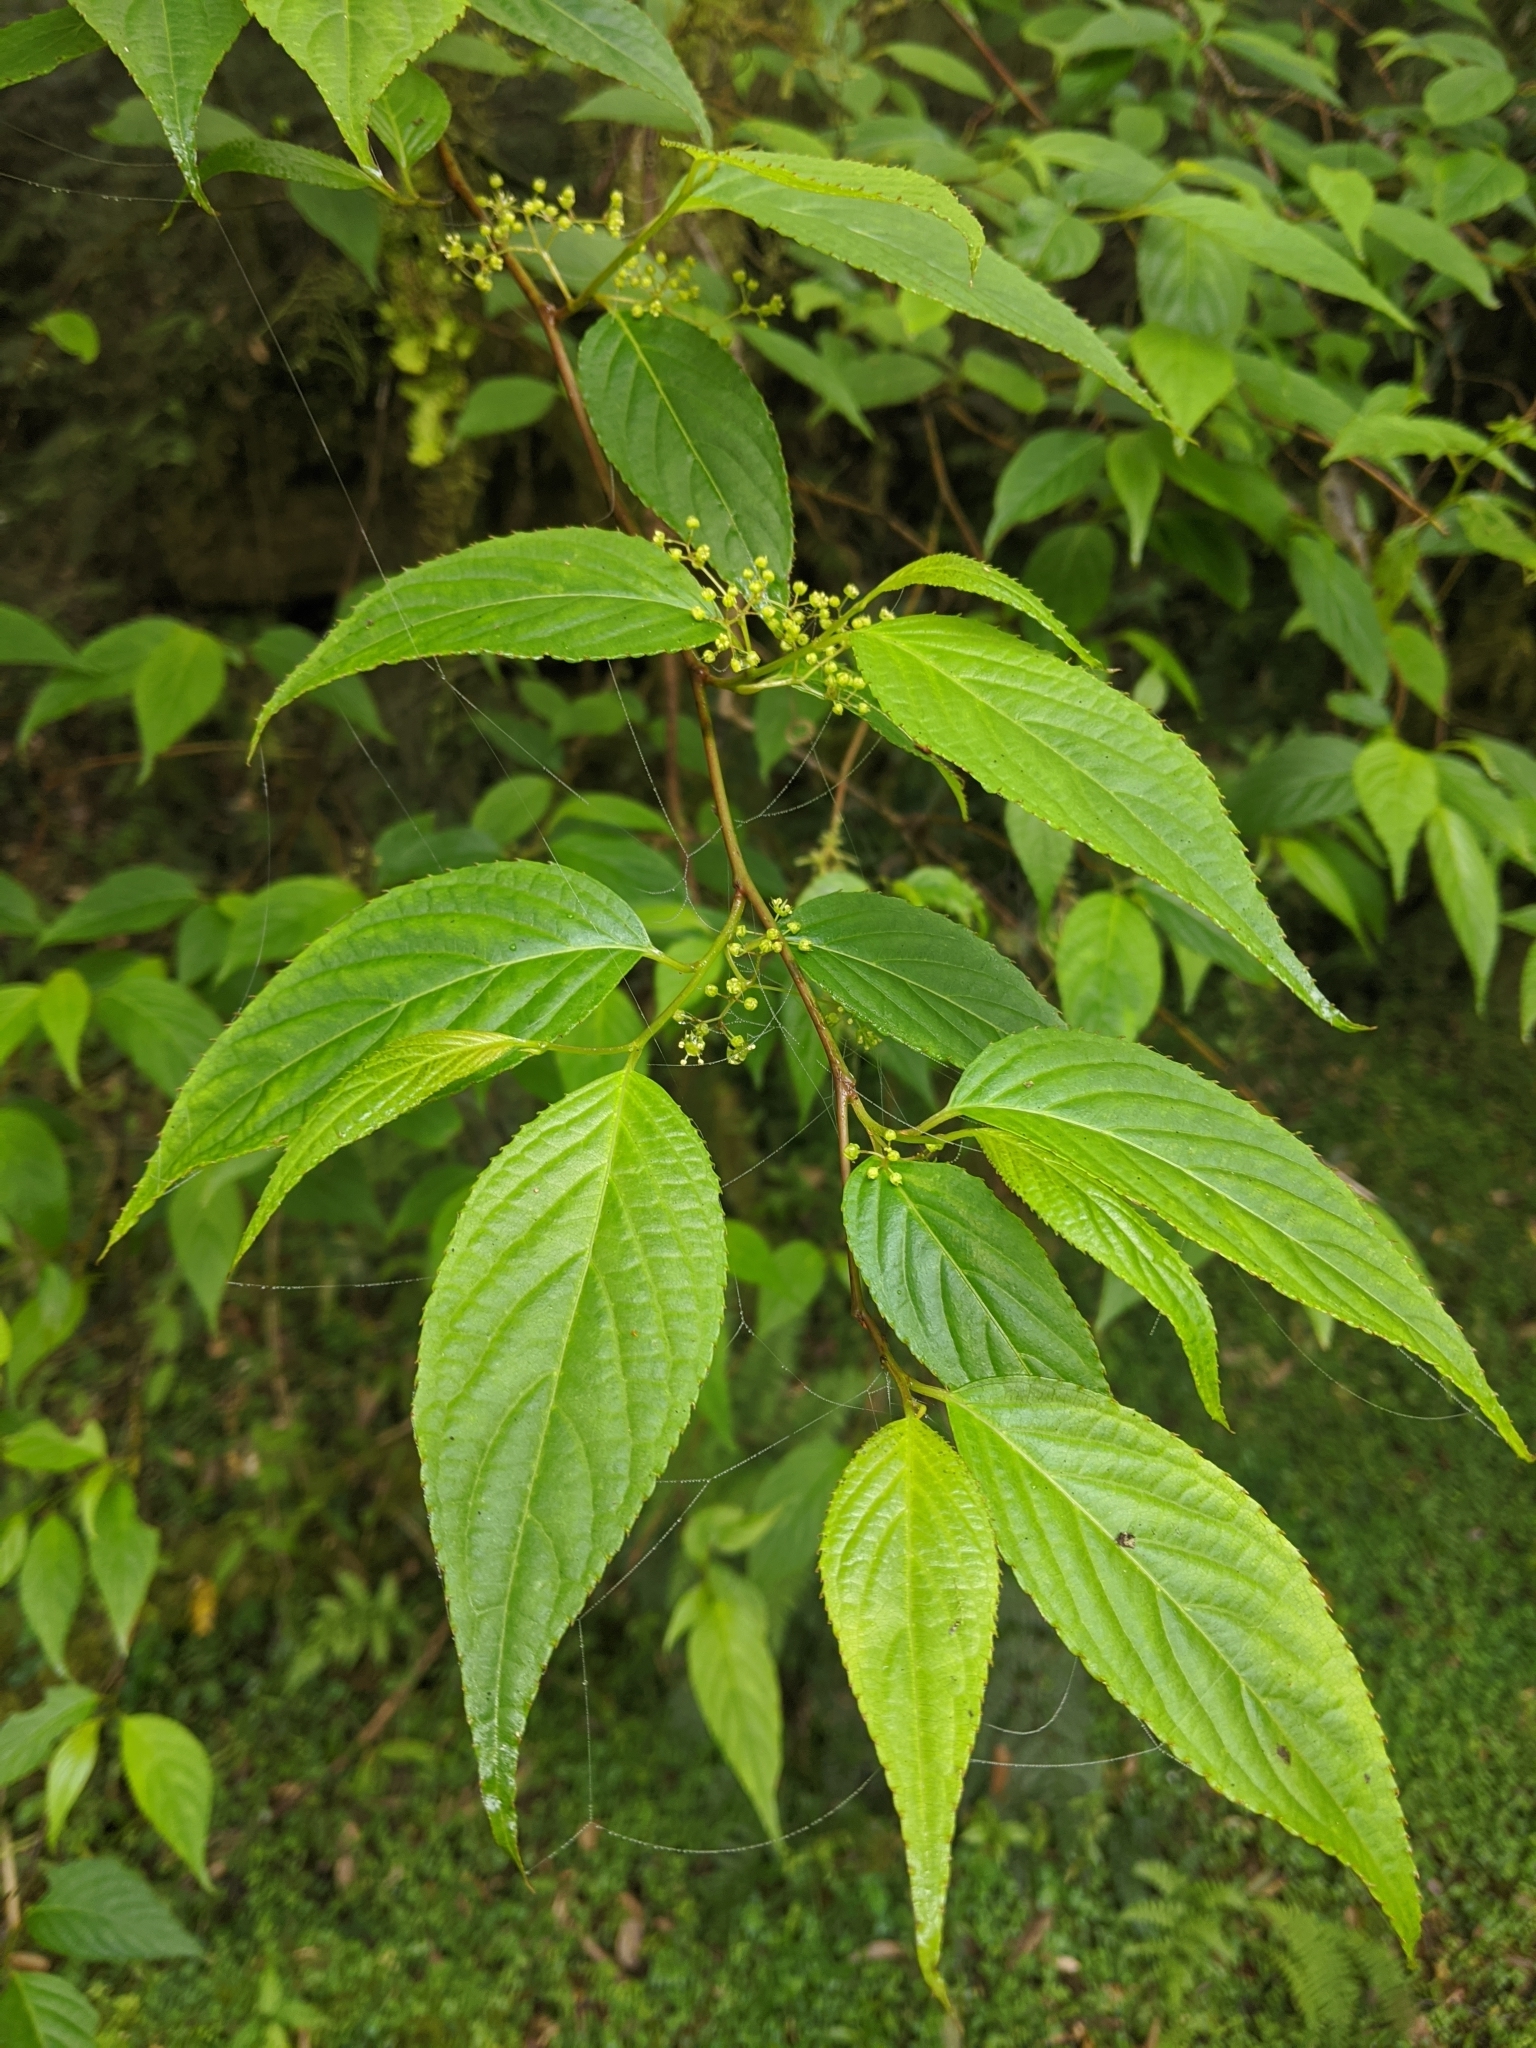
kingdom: Plantae
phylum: Tracheophyta
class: Magnoliopsida
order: Huerteales
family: Dipentodontaceae
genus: Perrottetia
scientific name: Perrottetia arisanensis
